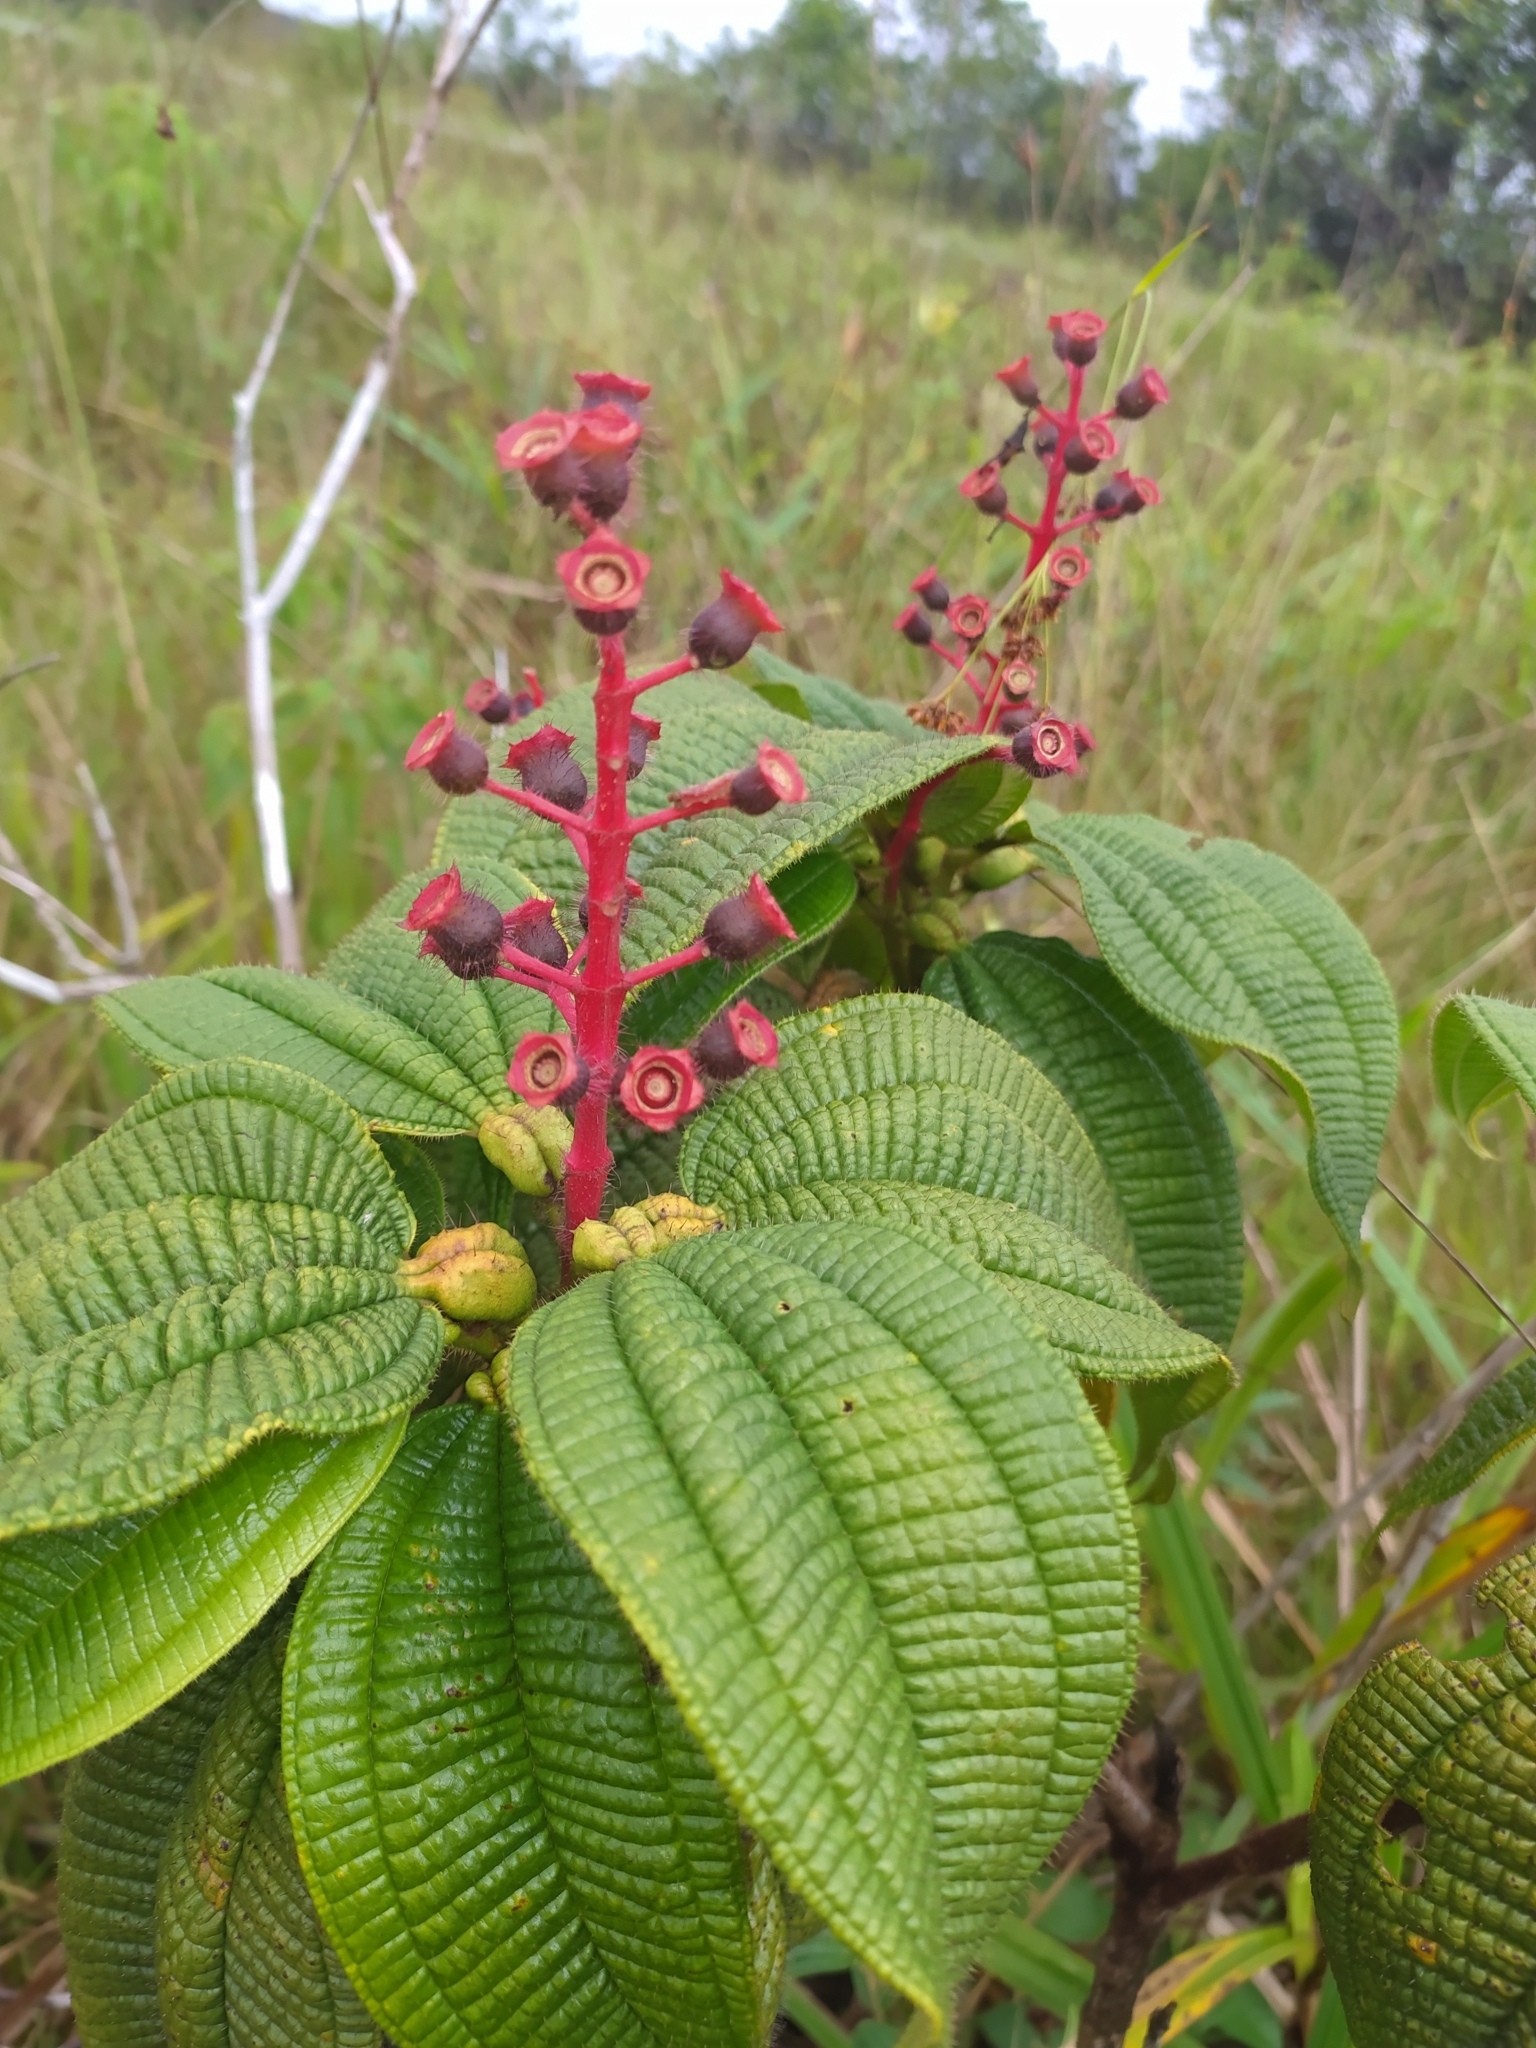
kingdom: Plantae
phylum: Tracheophyta
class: Magnoliopsida
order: Myrtales
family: Melastomataceae
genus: Miconia
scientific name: Miconia tococa
